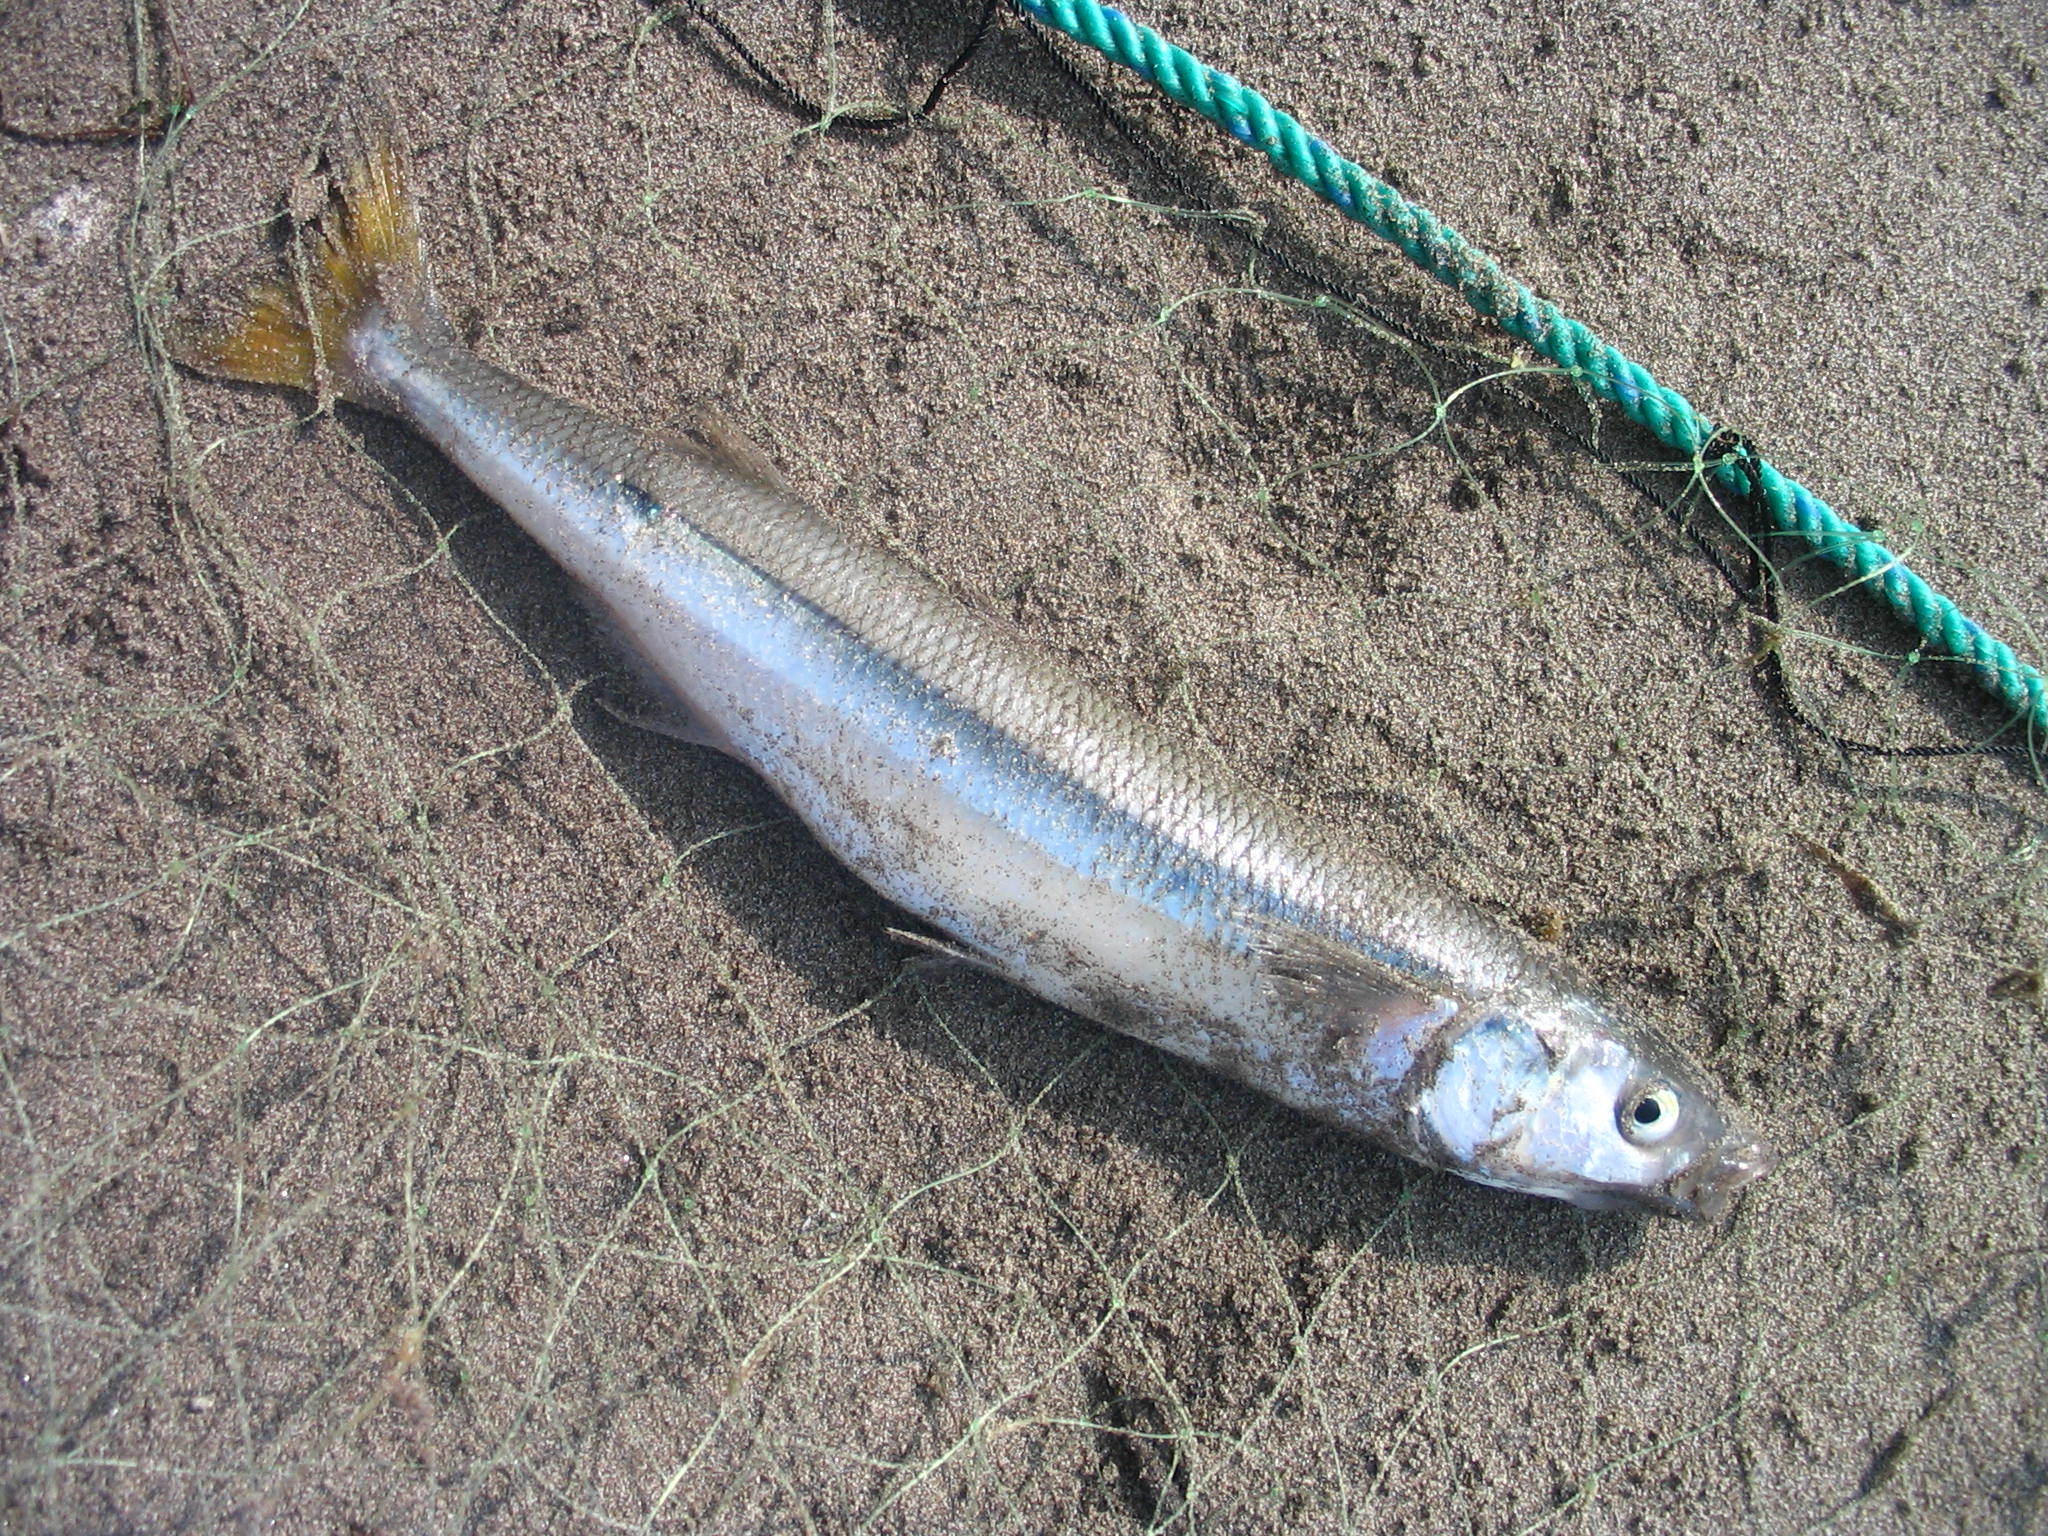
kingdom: Animalia
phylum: Chordata
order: Atheriniformes
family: Atherinopsidae
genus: Odontesthes
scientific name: Odontesthes regia
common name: Chilean silverside
